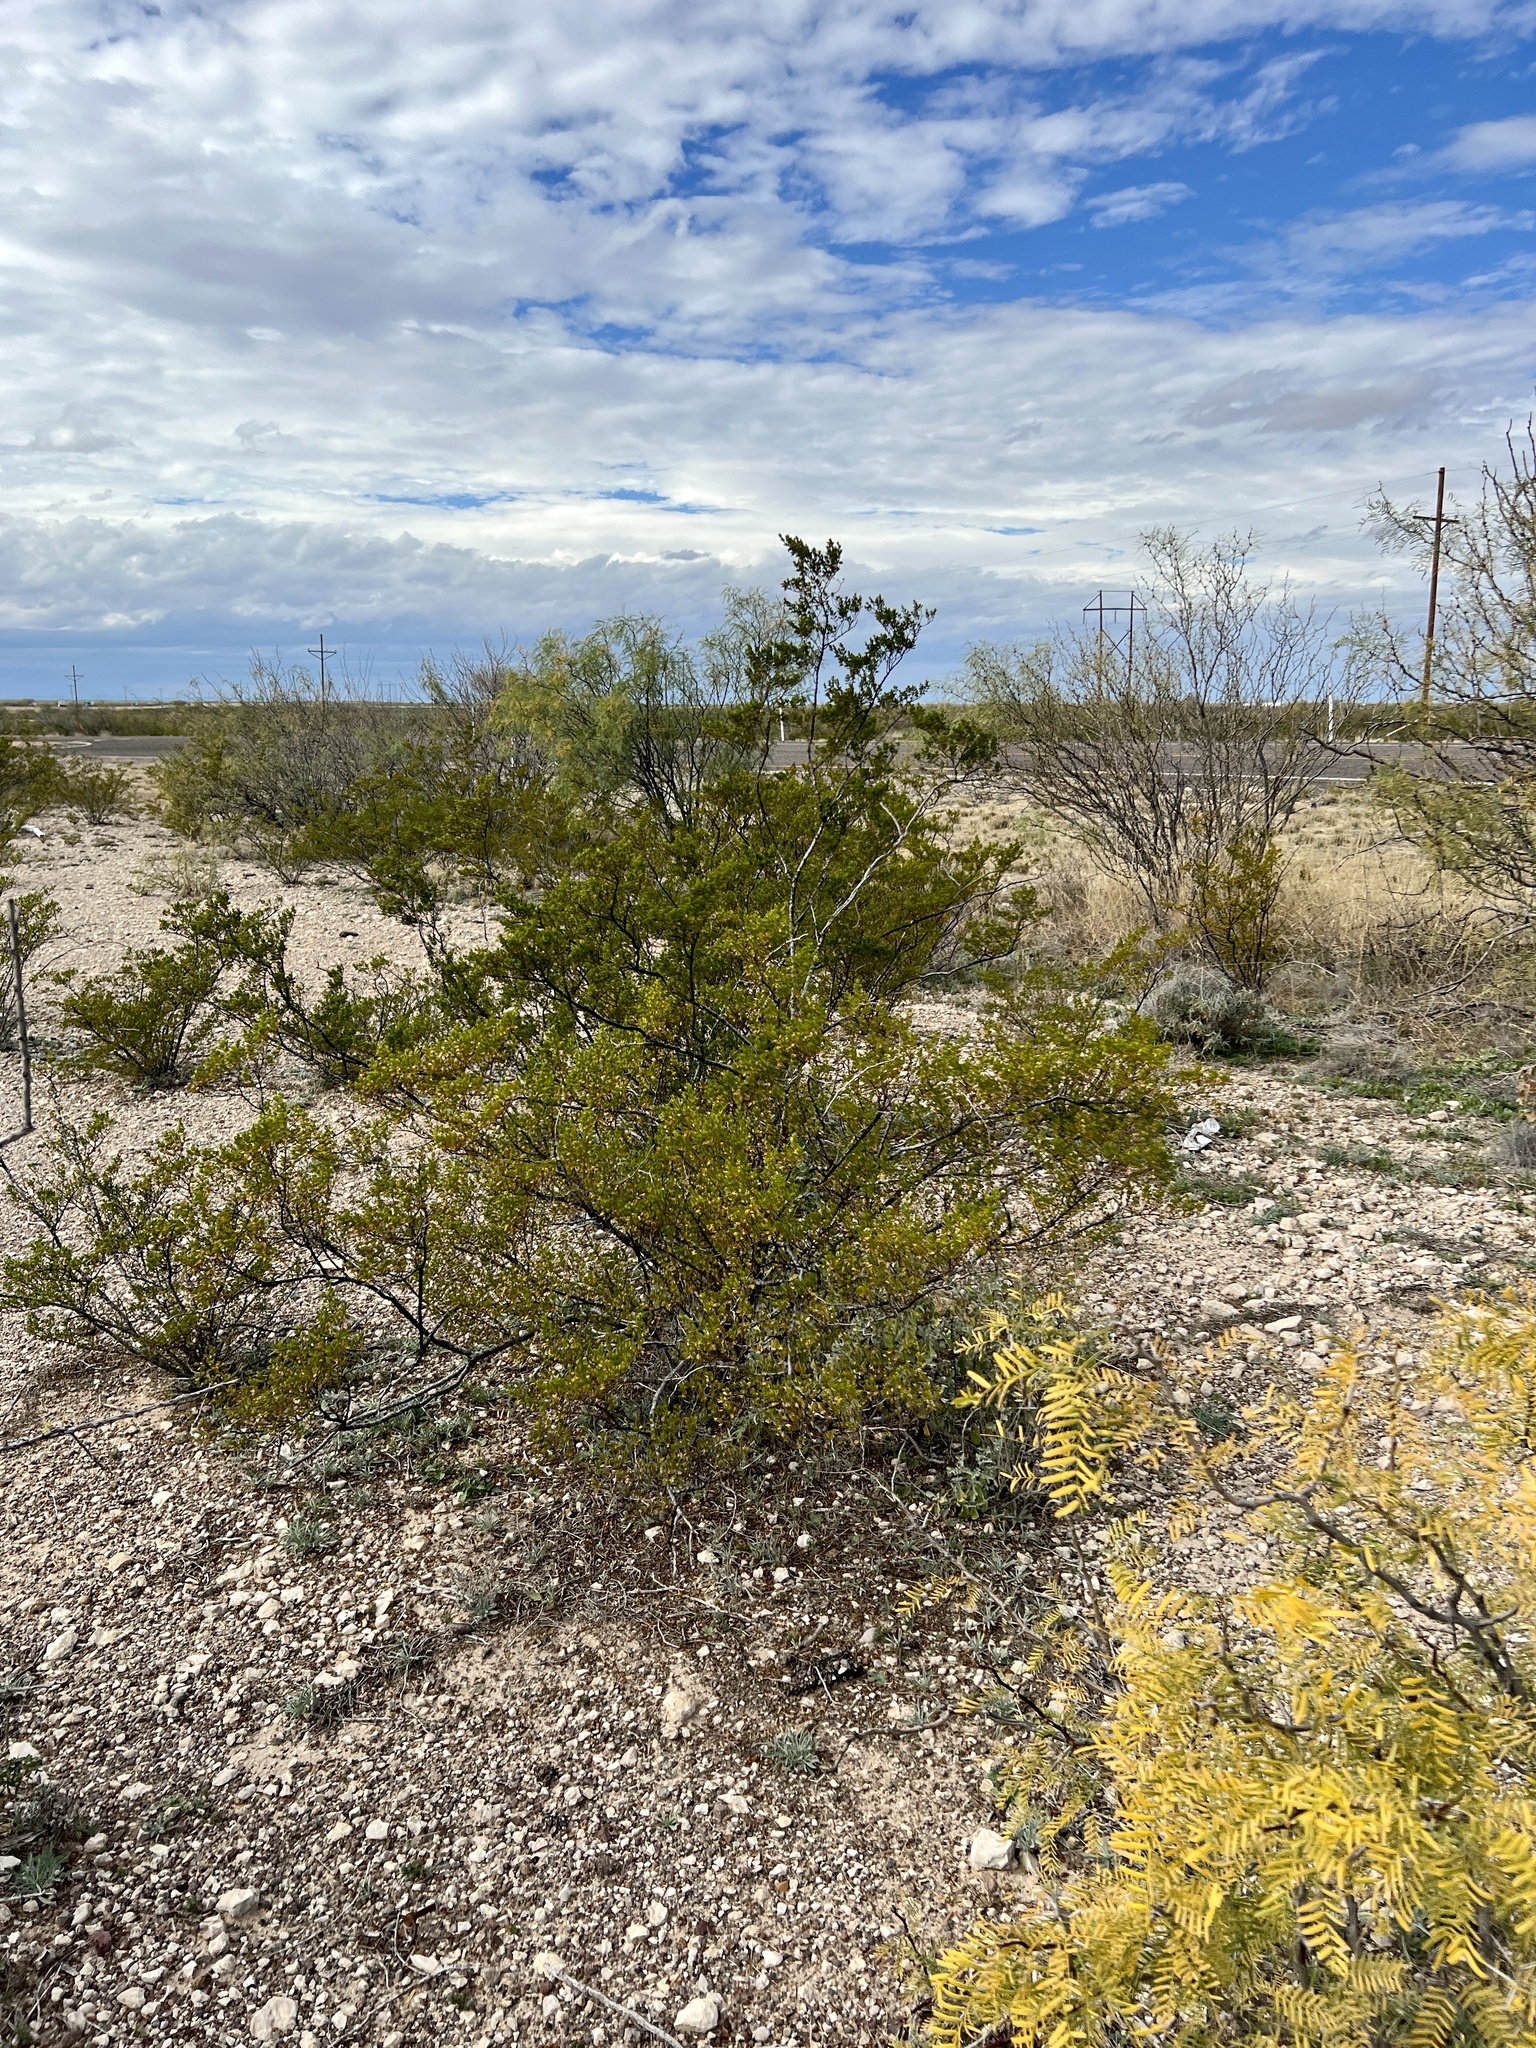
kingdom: Plantae
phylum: Tracheophyta
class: Magnoliopsida
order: Zygophyllales
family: Zygophyllaceae
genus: Larrea
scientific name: Larrea tridentata
